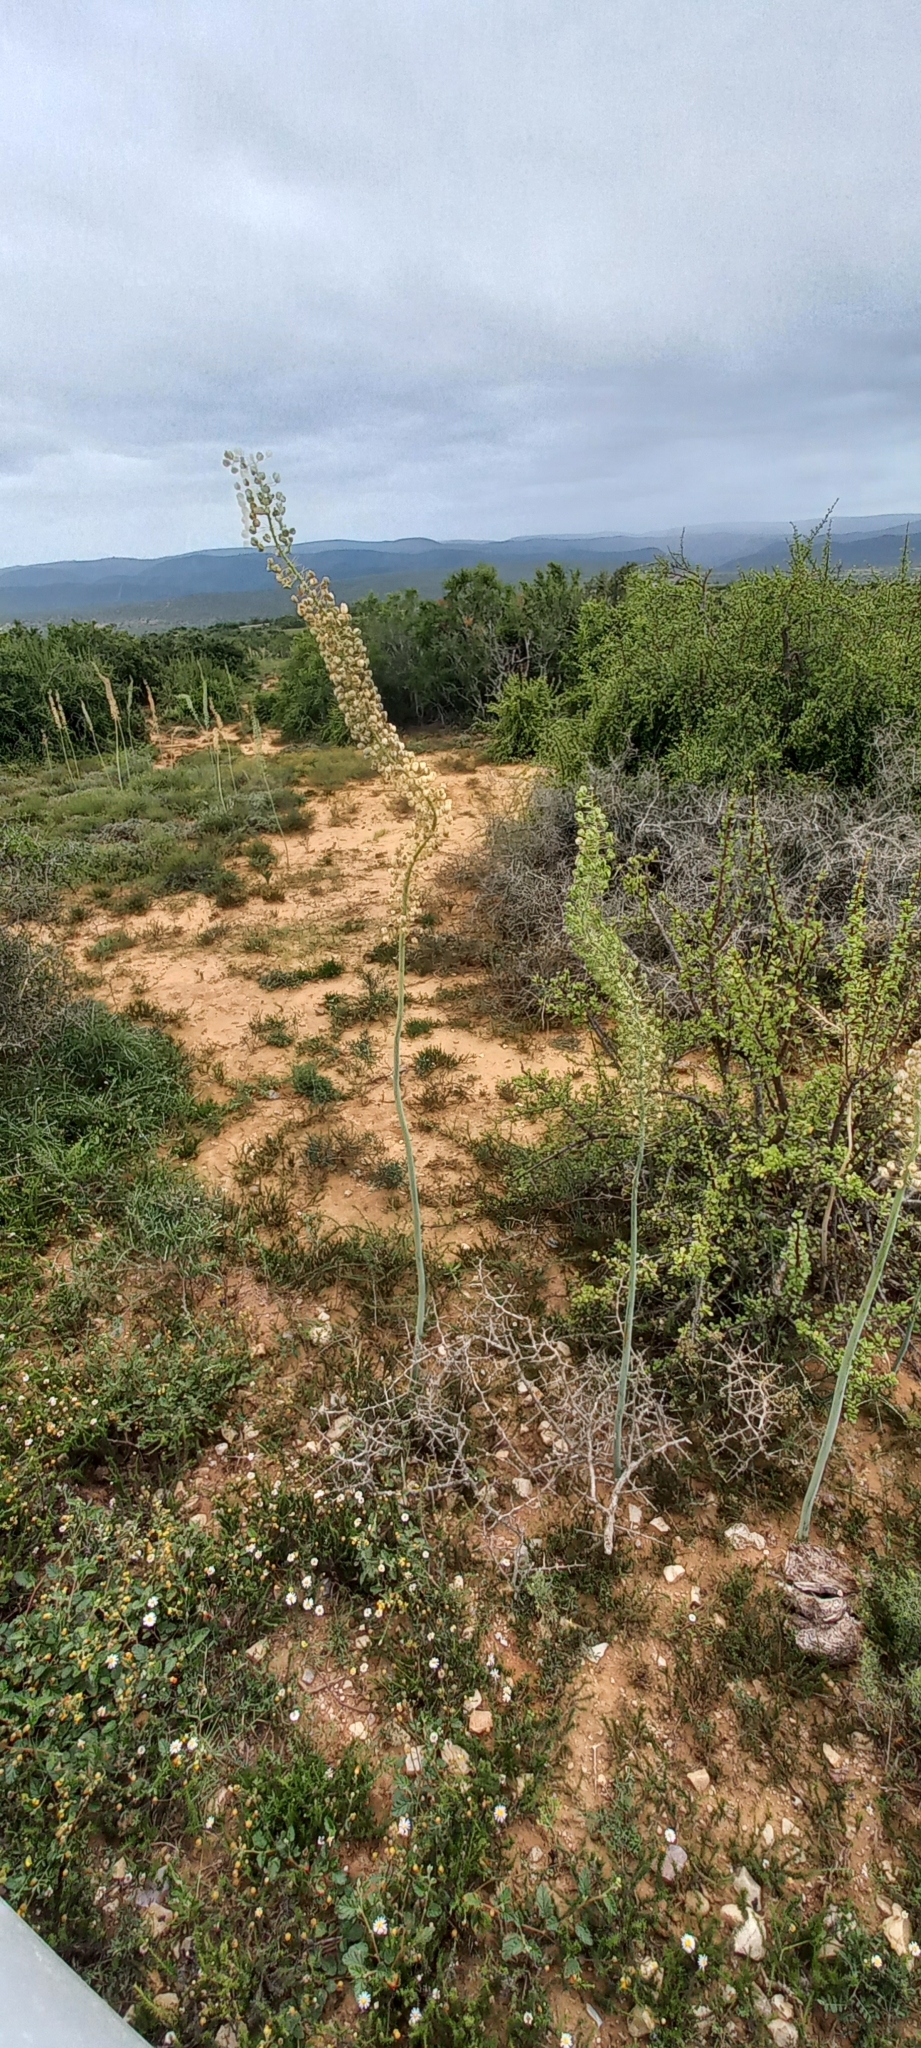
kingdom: Plantae
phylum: Tracheophyta
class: Liliopsida
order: Asparagales
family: Asparagaceae
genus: Drimia
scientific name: Drimia altissima
